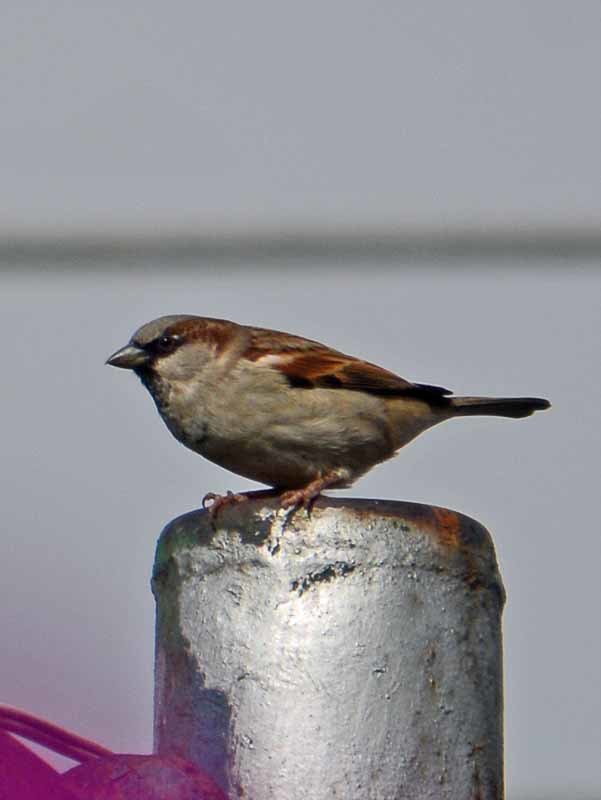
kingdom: Animalia
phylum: Chordata
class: Aves
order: Passeriformes
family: Passeridae
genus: Passer
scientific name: Passer domesticus
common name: House sparrow
